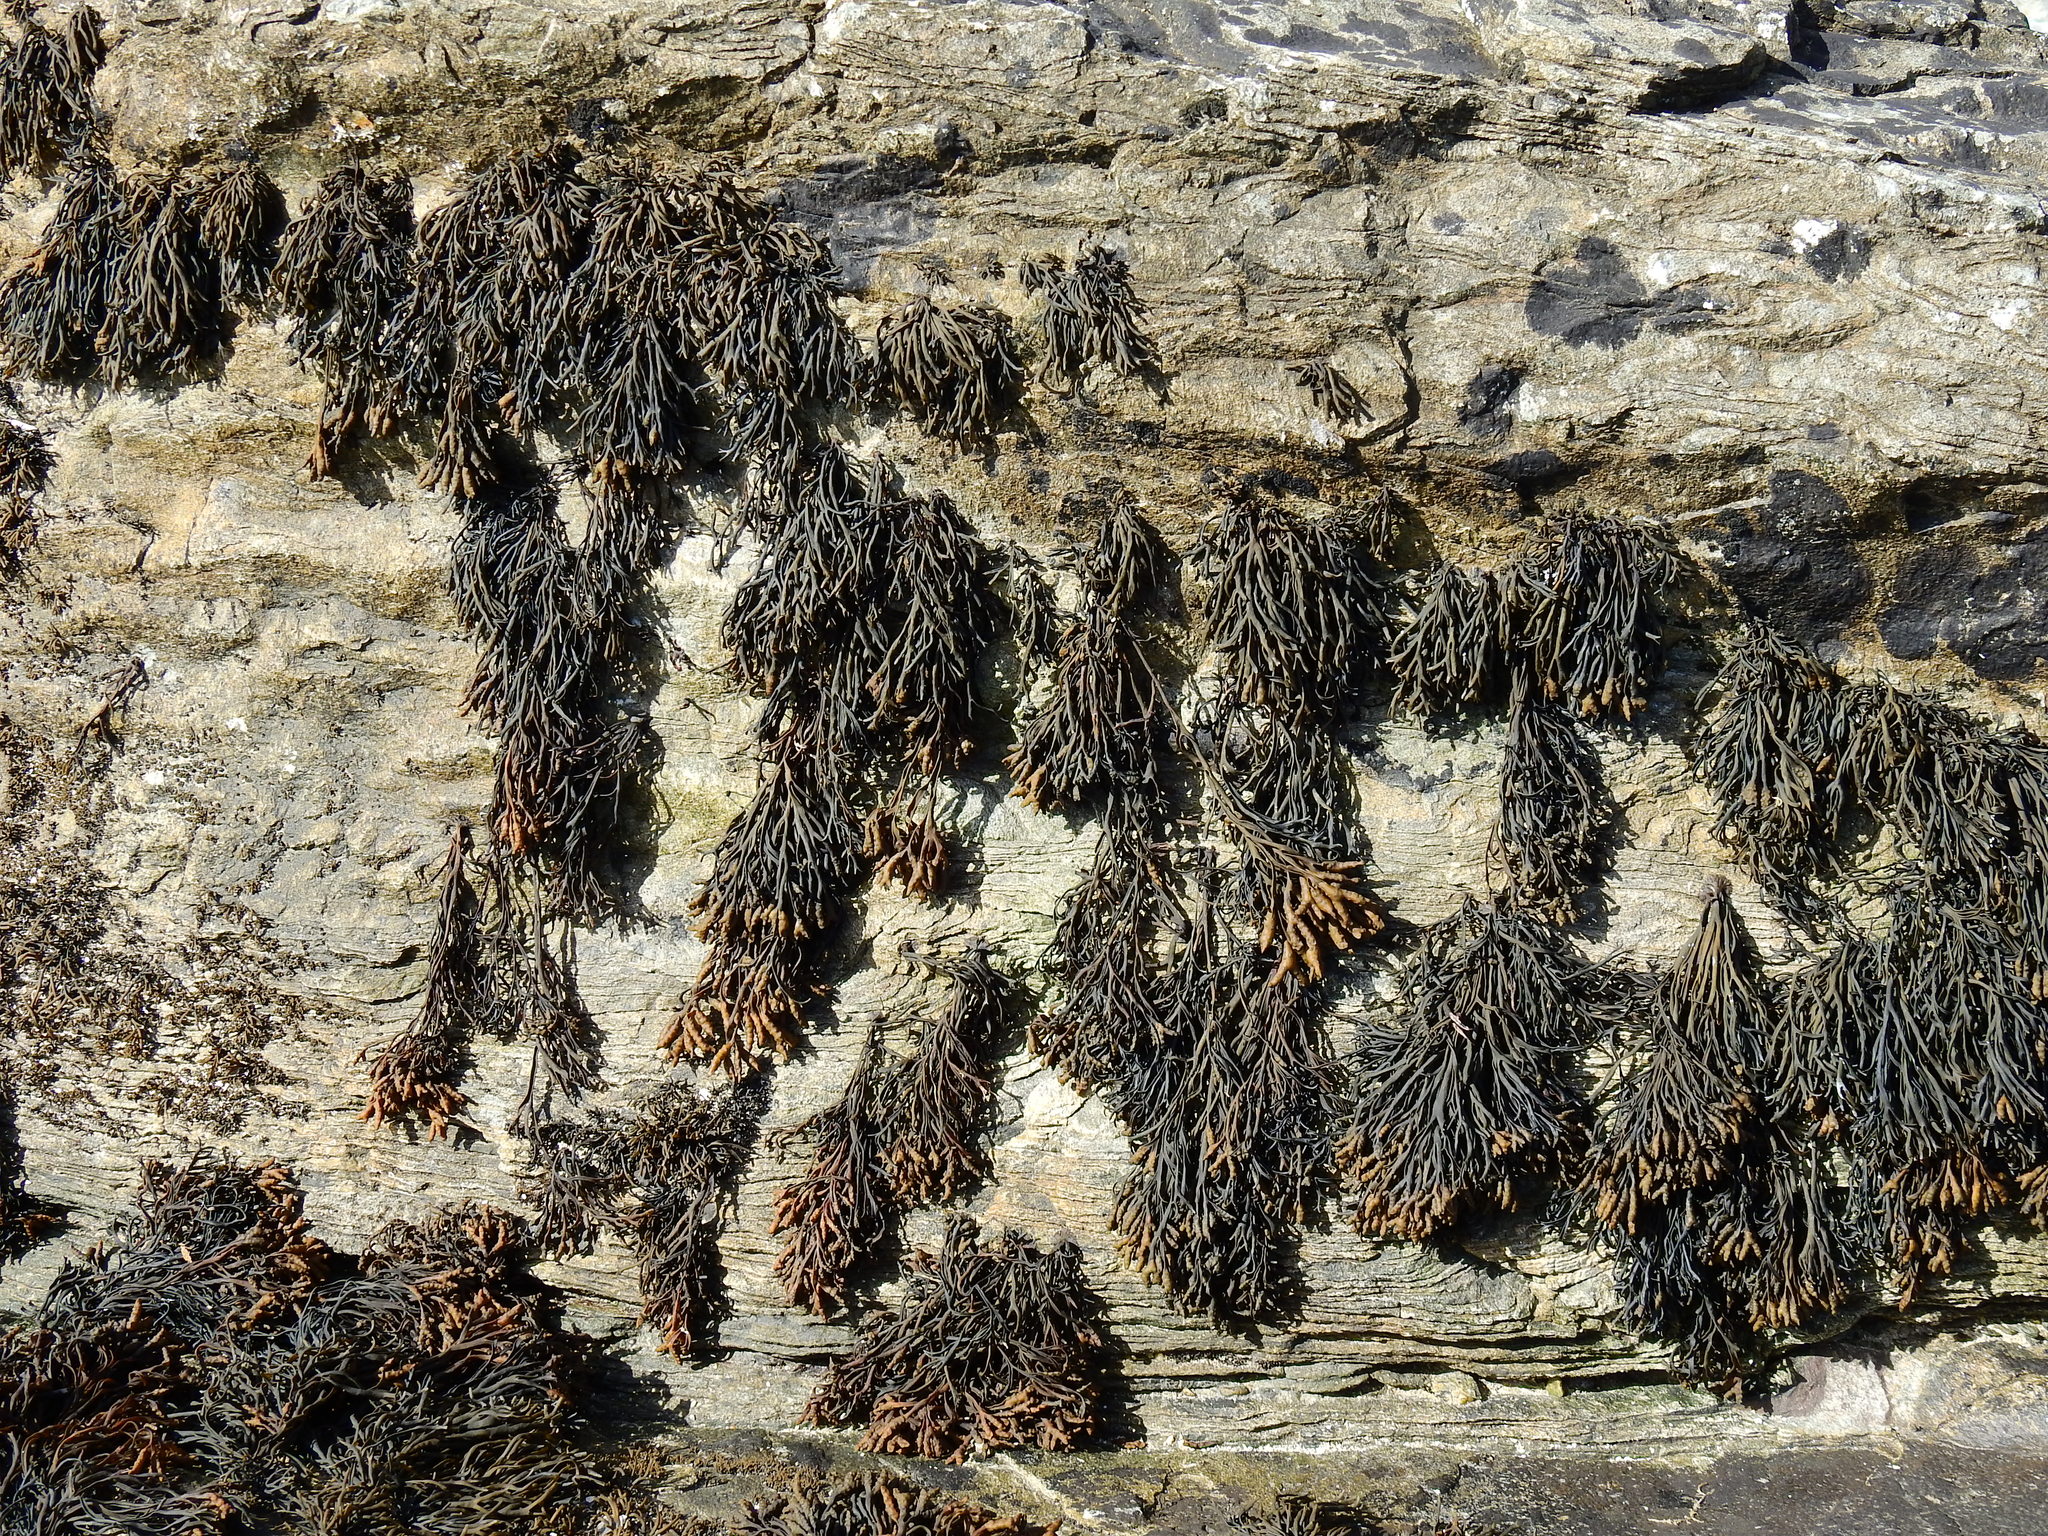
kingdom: Chromista
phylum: Ochrophyta
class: Phaeophyceae
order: Fucales
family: Fucaceae
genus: Pelvetia
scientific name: Pelvetia canaliculata
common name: Channelled wrack
